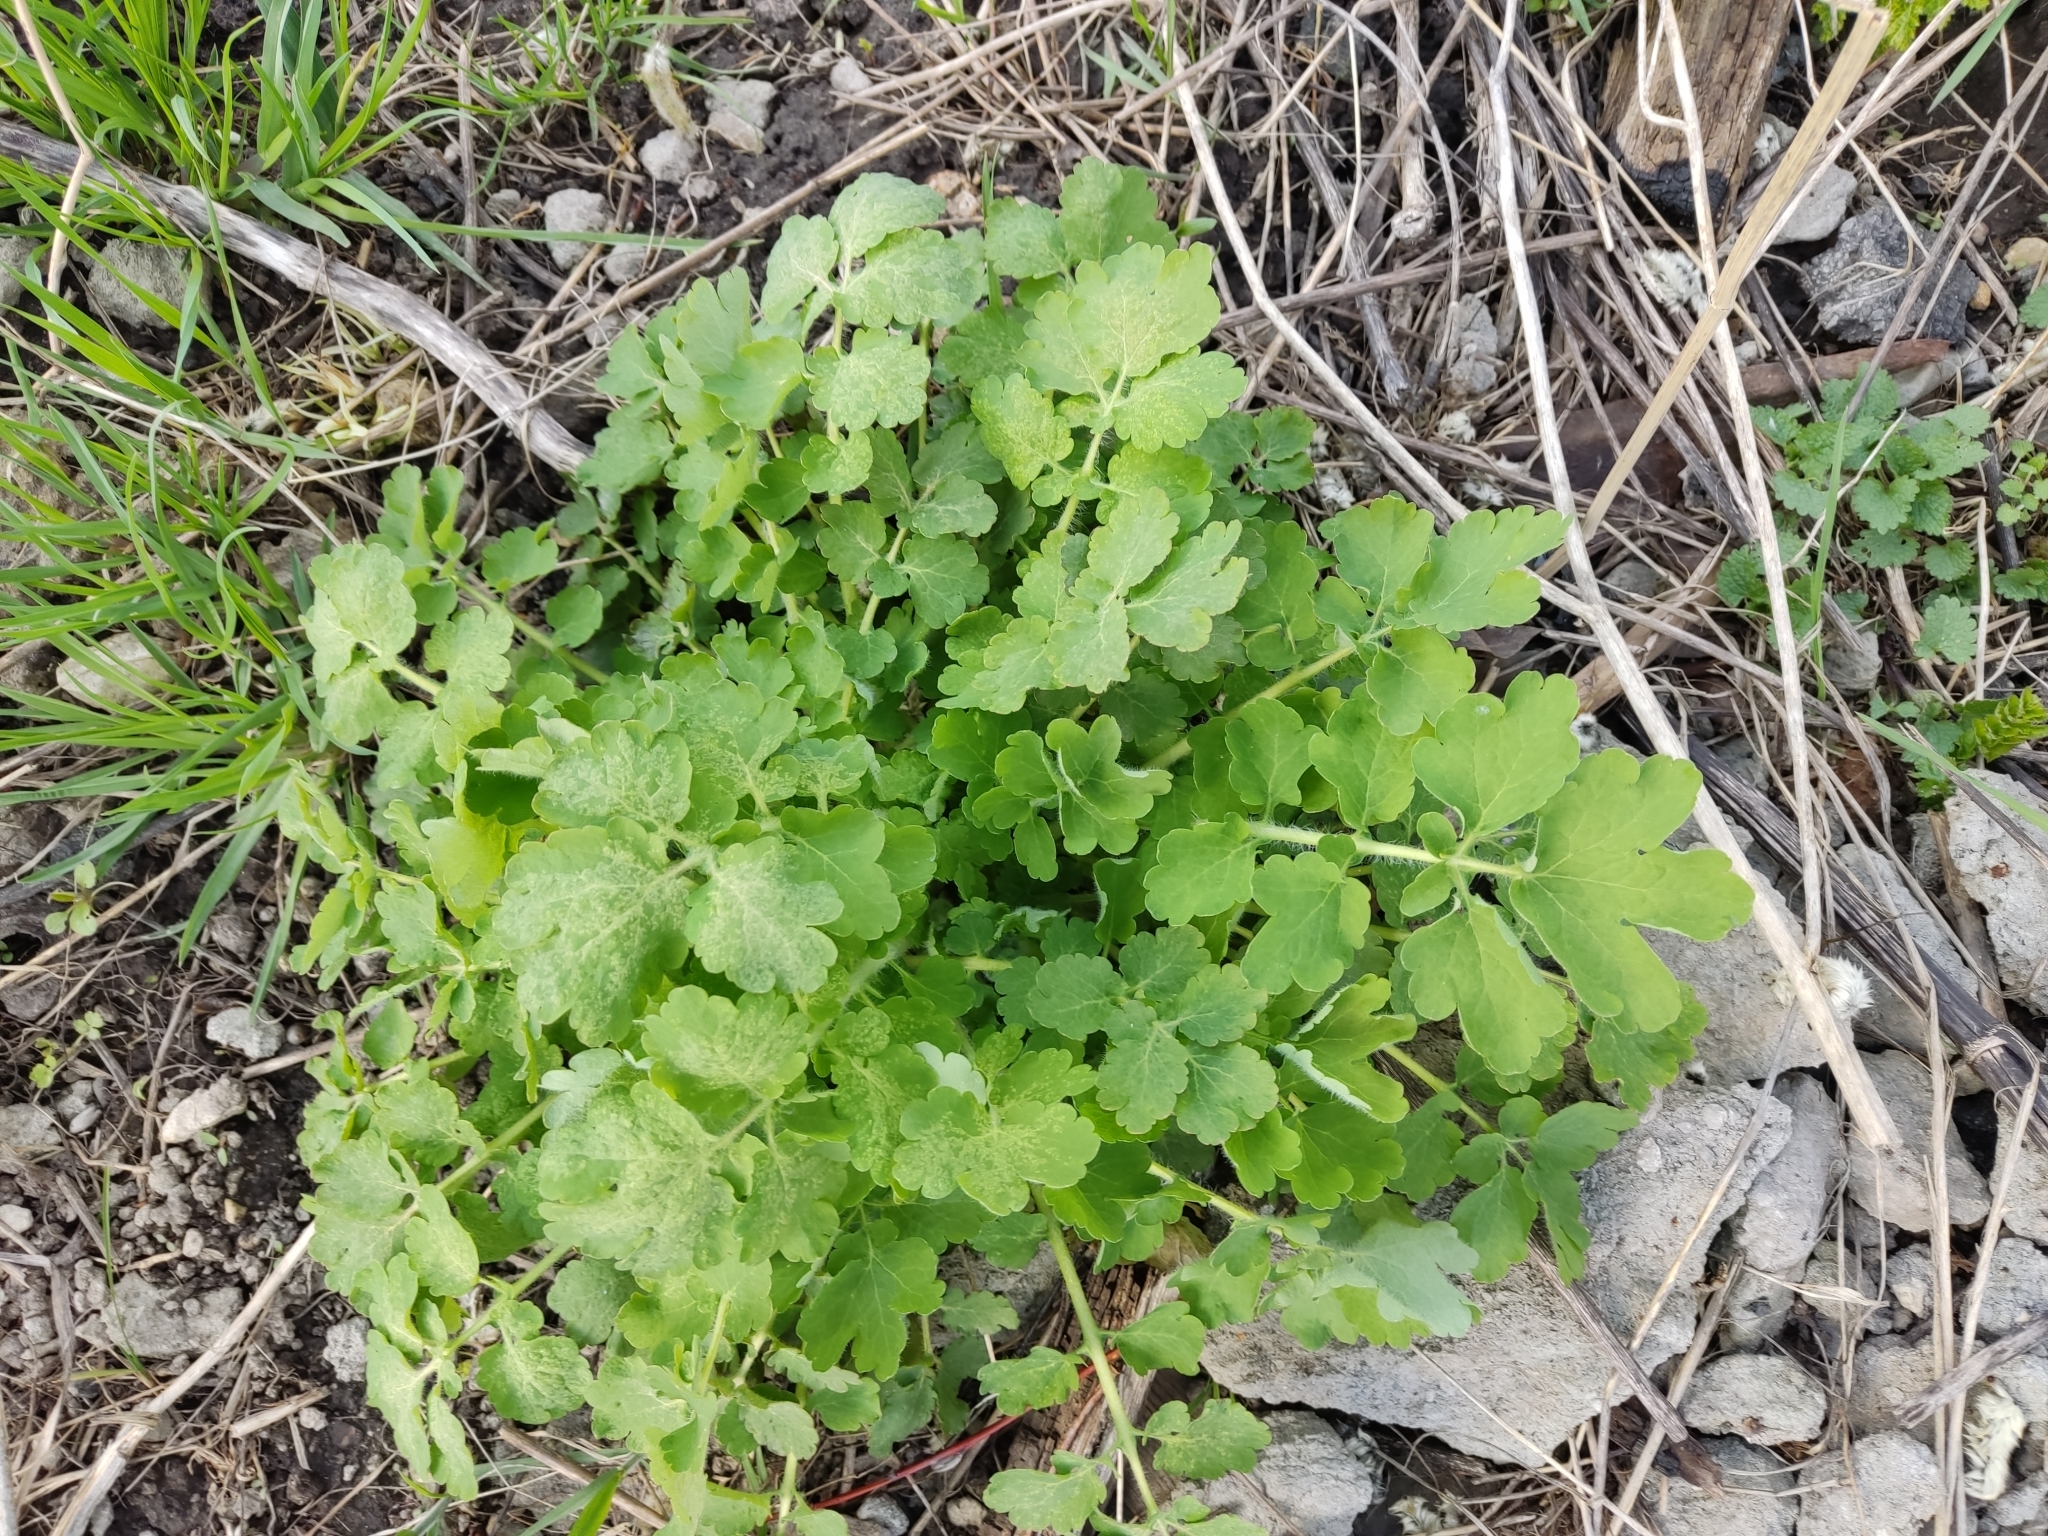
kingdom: Plantae
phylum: Tracheophyta
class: Magnoliopsida
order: Ranunculales
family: Papaveraceae
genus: Chelidonium
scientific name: Chelidonium majus
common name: Greater celandine
